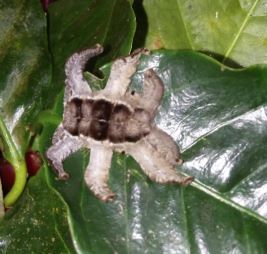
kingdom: Animalia
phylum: Arthropoda
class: Insecta
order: Lepidoptera
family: Limacodidae
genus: Phobetron
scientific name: Phobetron hipparchia
